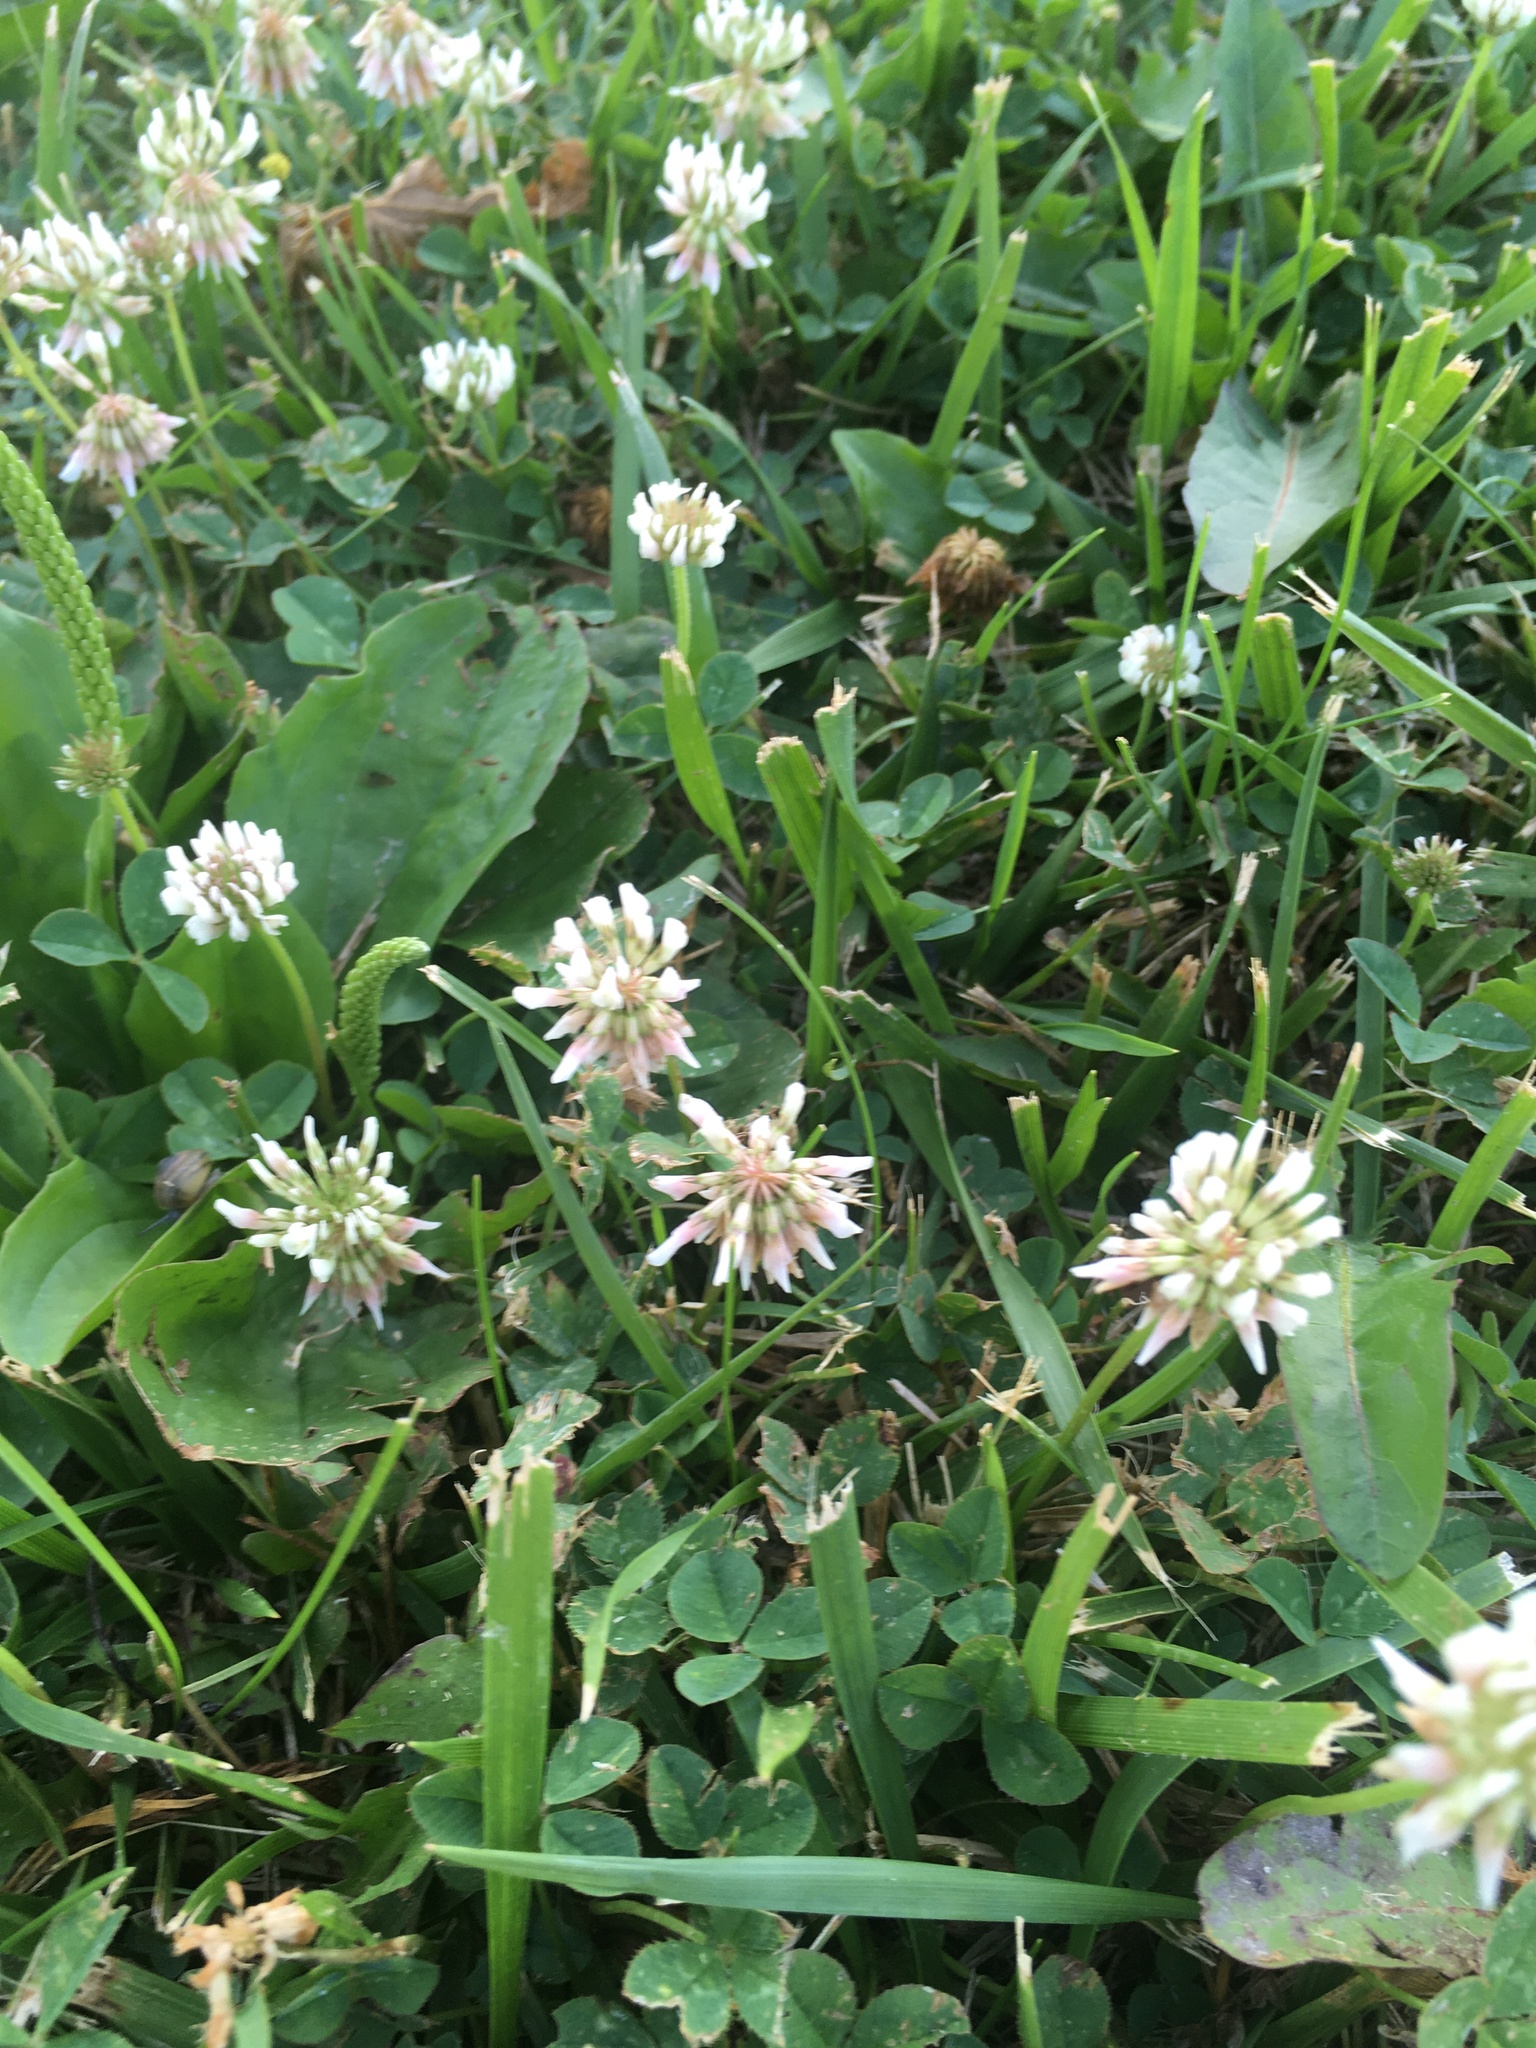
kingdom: Plantae
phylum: Tracheophyta
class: Magnoliopsida
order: Fabales
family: Fabaceae
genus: Trifolium
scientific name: Trifolium repens
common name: White clover
